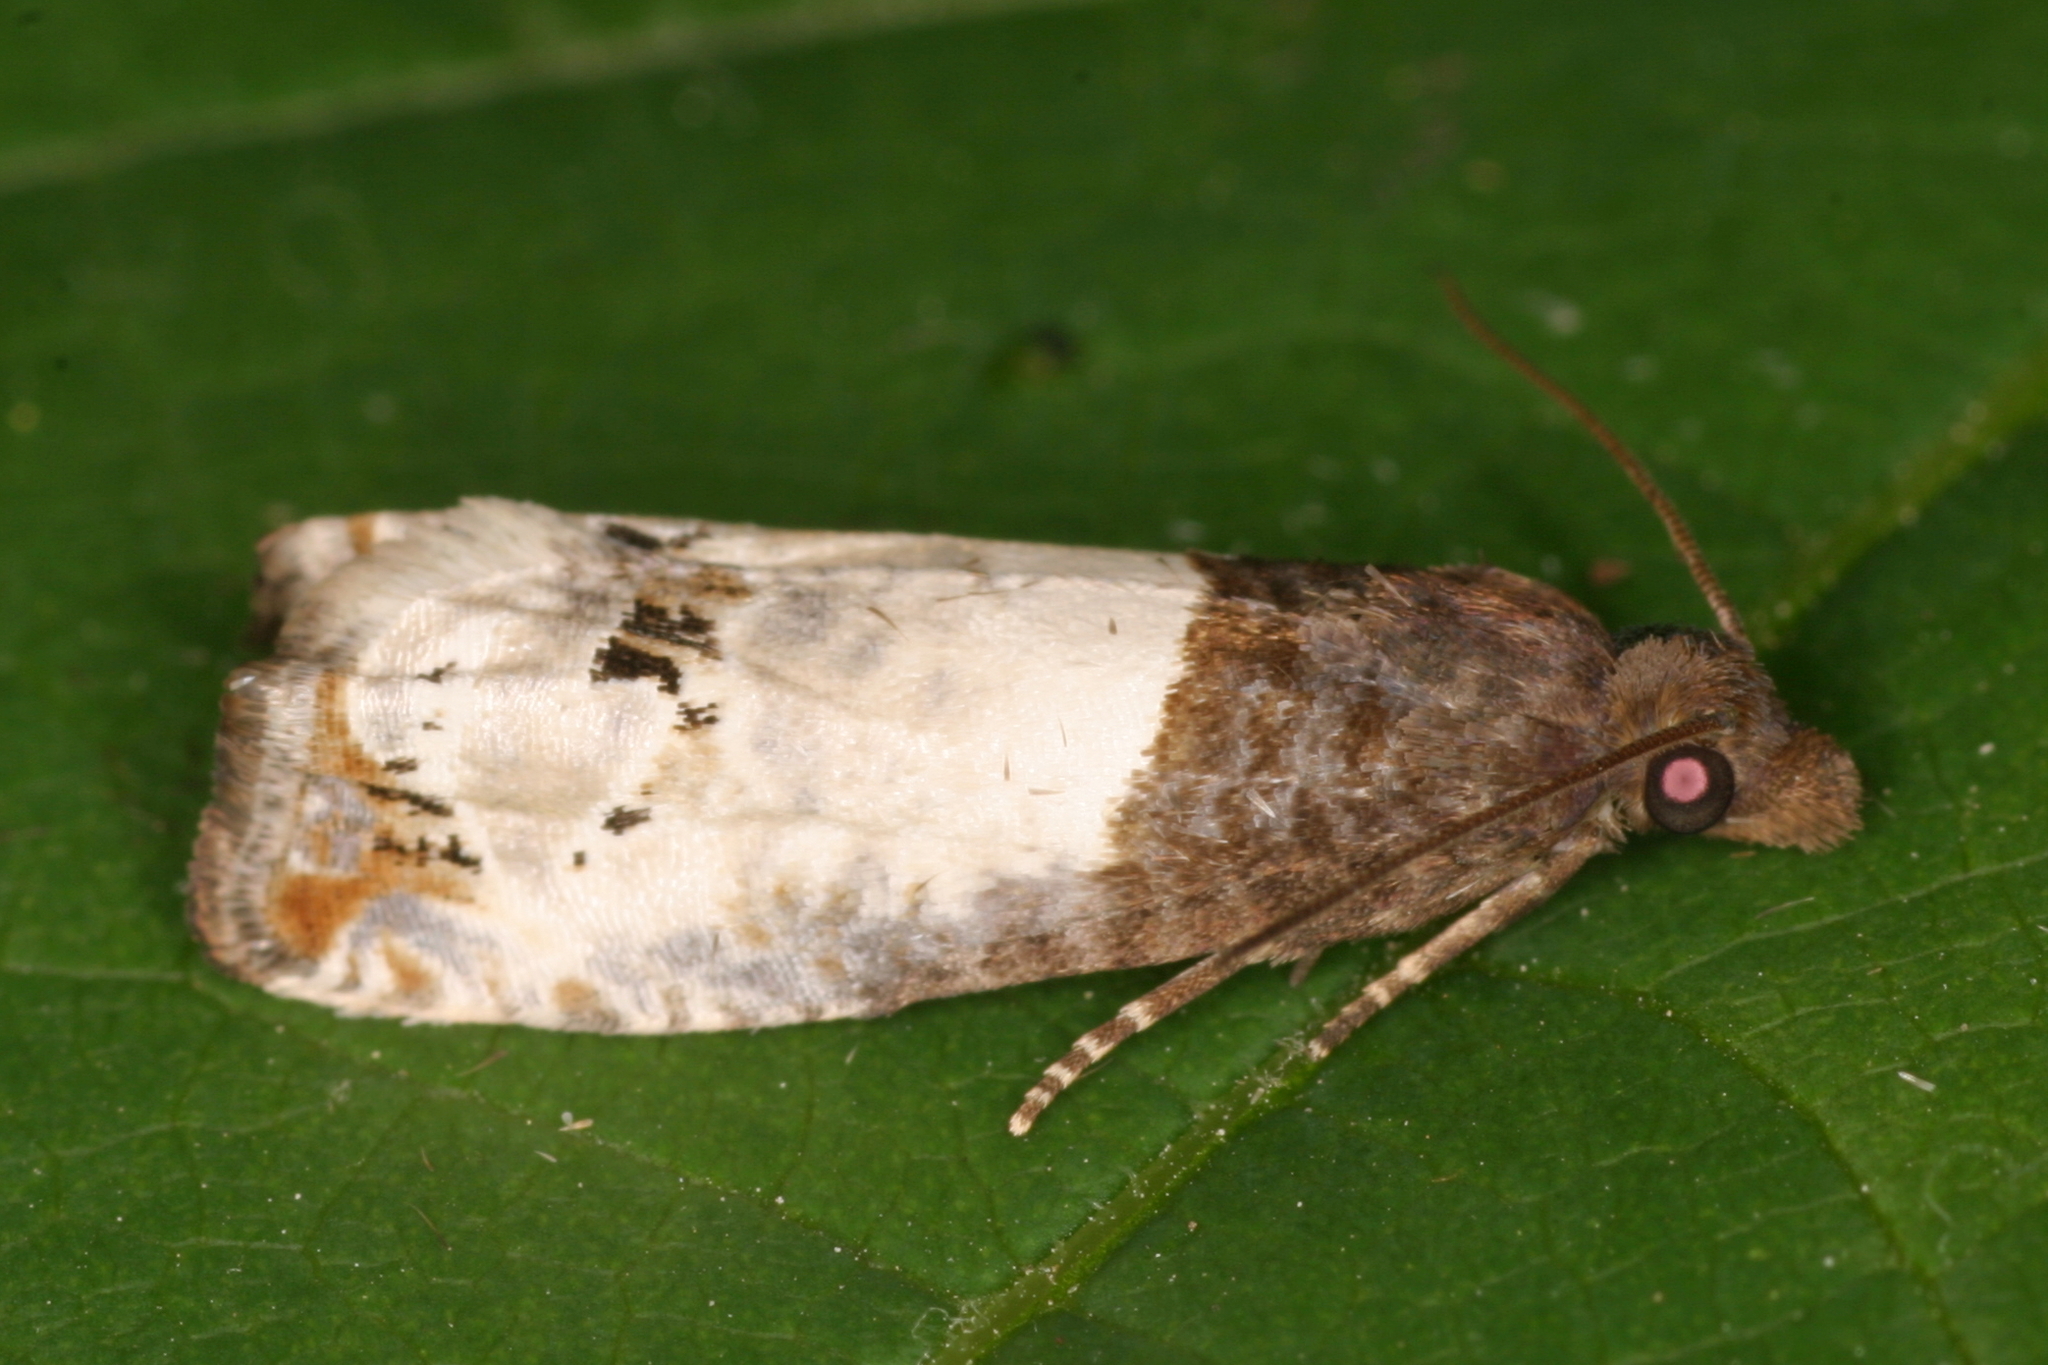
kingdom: Animalia
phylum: Arthropoda
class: Insecta
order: Lepidoptera
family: Tortricidae
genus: Epiblema
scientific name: Epiblema aquana
